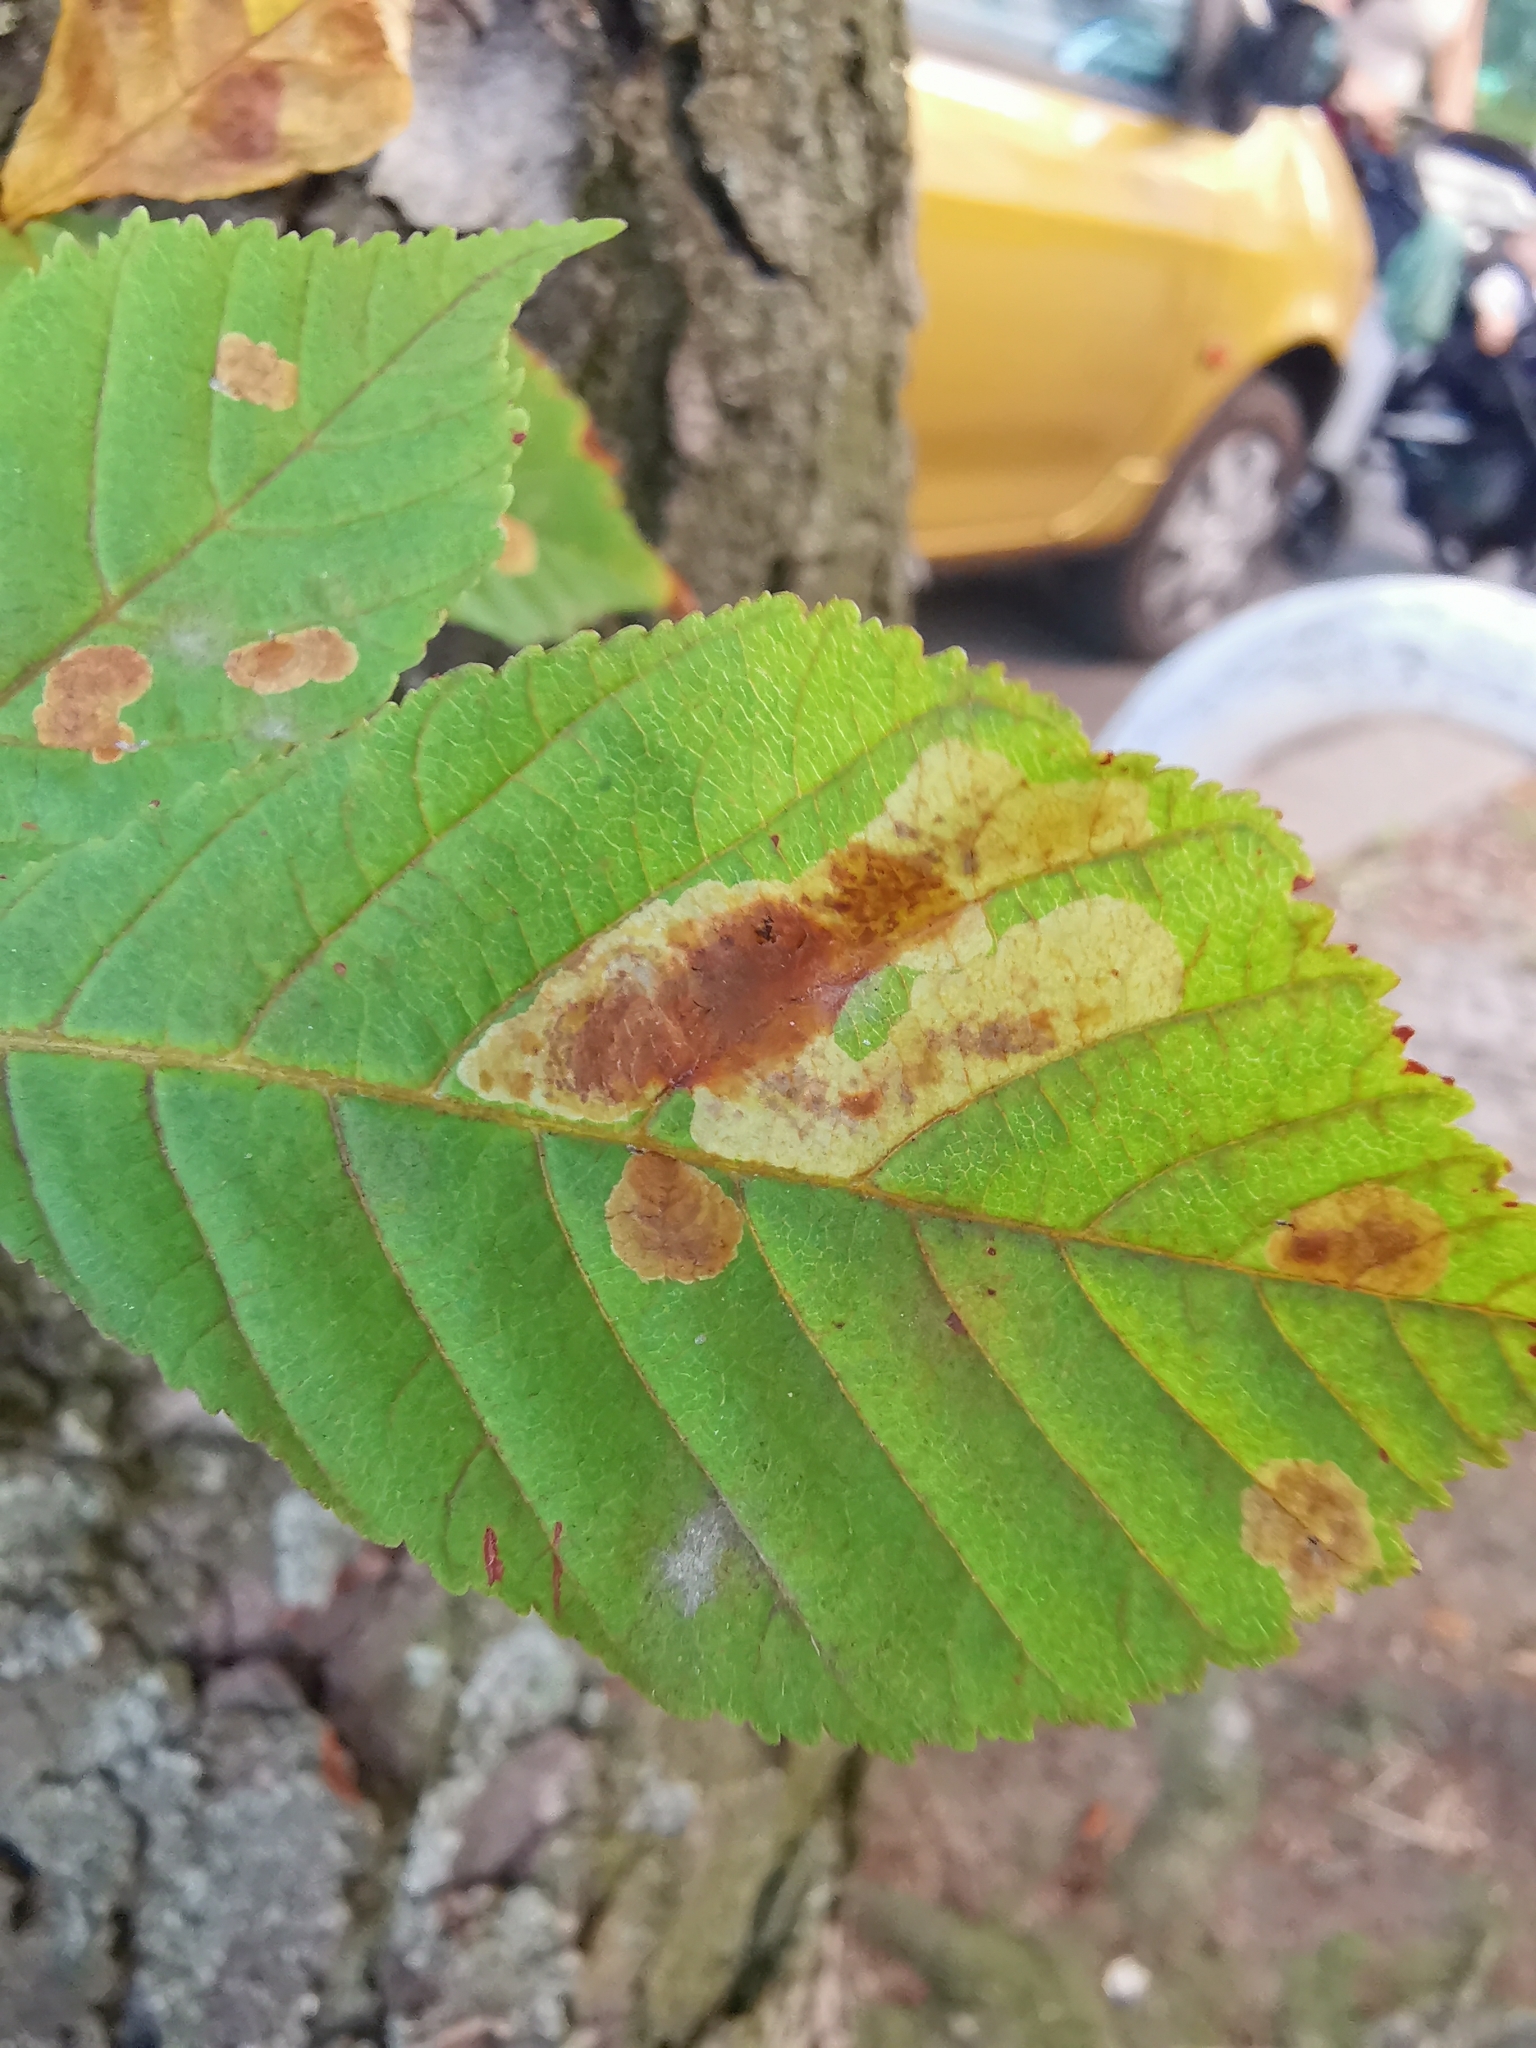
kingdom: Animalia
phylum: Arthropoda
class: Insecta
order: Lepidoptera
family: Gracillariidae
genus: Cameraria
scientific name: Cameraria ohridella
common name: Horse-chestnut leaf-miner
